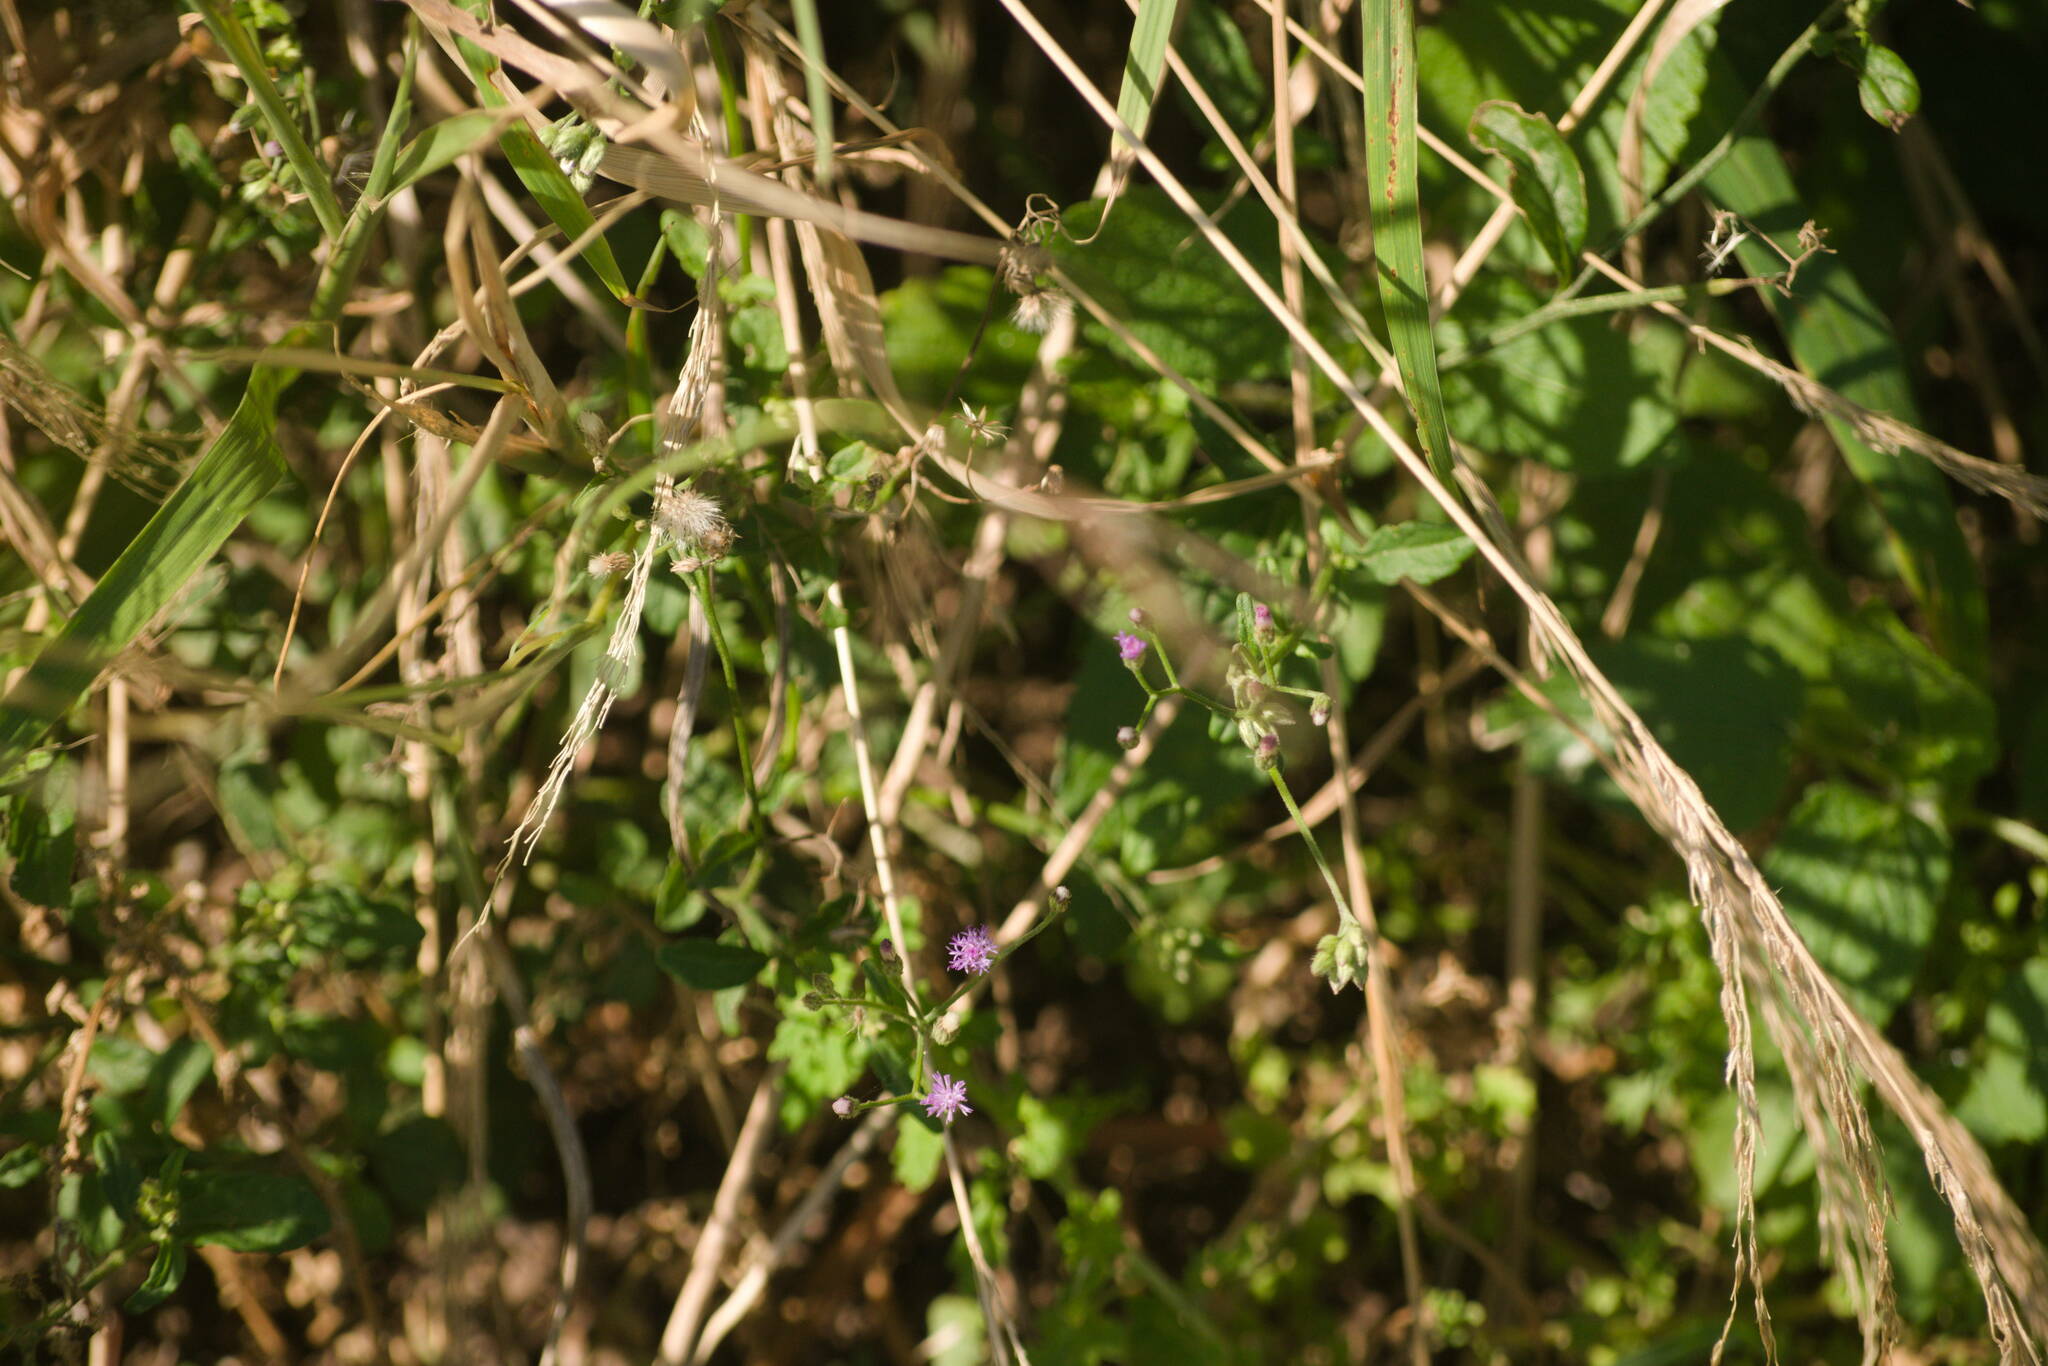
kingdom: Plantae
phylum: Tracheophyta
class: Magnoliopsida
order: Asterales
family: Asteraceae
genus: Cyanthillium
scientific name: Cyanthillium cinereum
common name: Little ironweed
